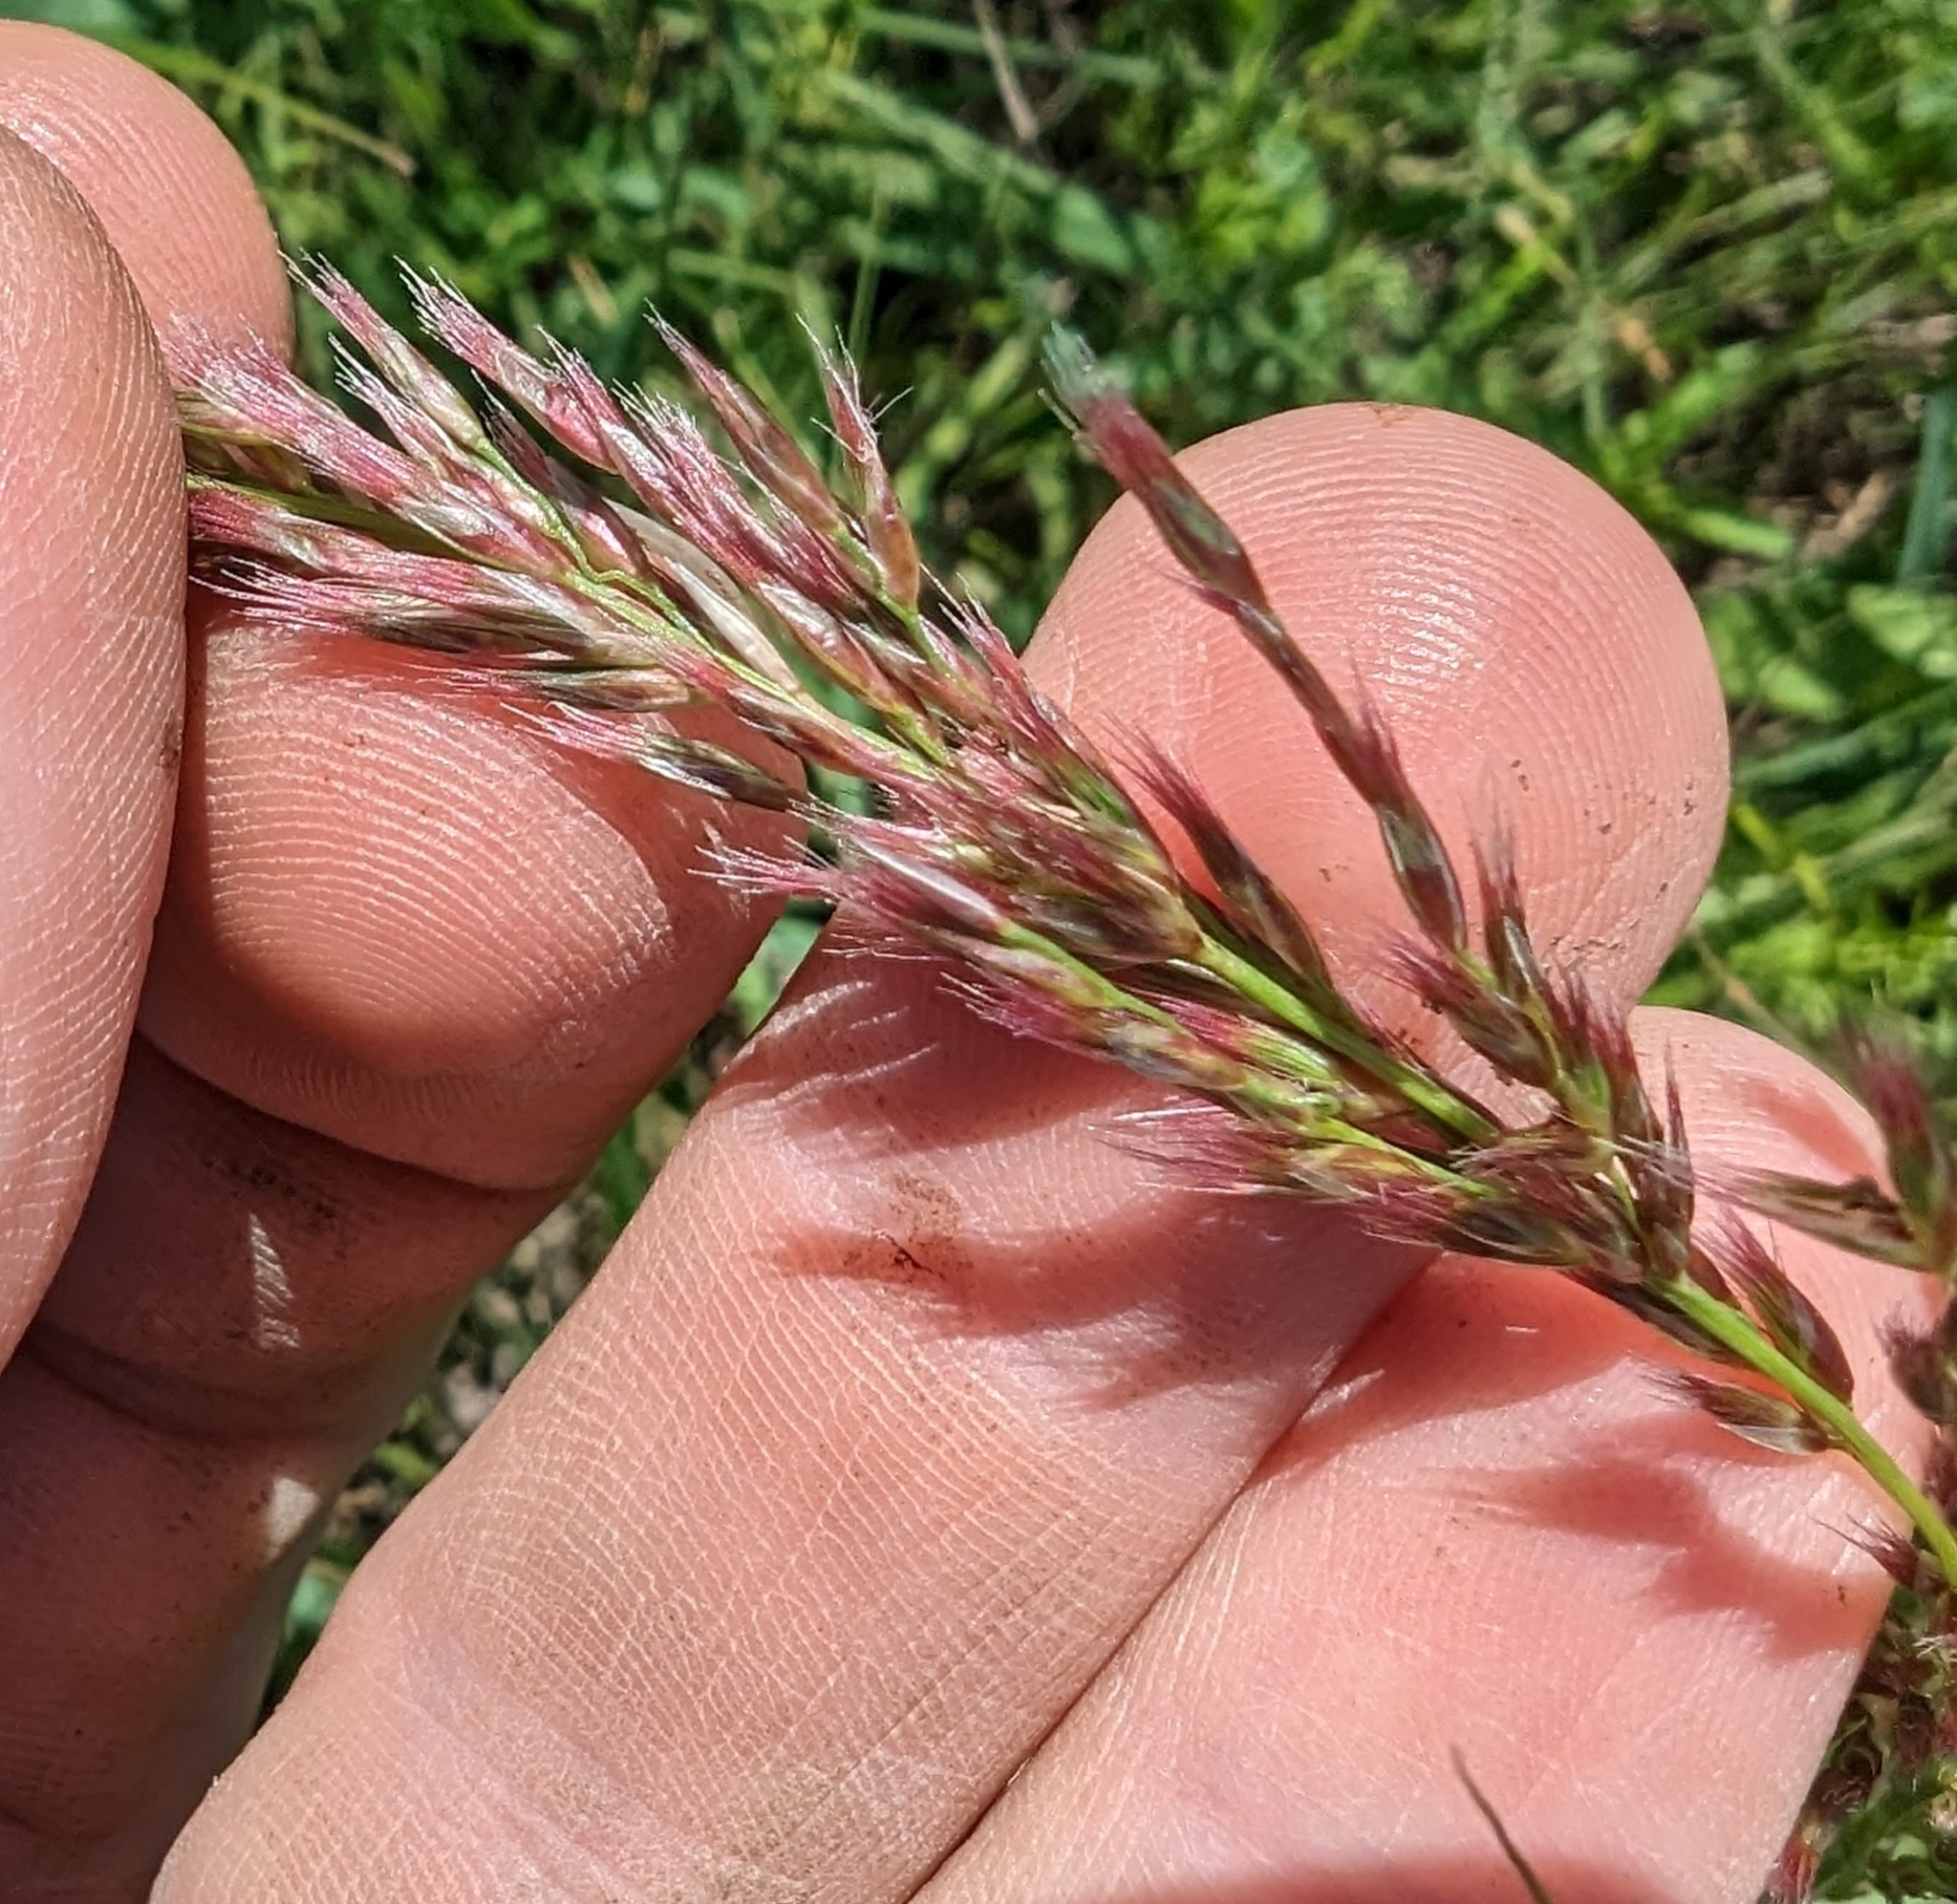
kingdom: Plantae
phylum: Tracheophyta
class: Liliopsida
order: Poales
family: Poaceae
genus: Pappophorum
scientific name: Pappophorum bicolor
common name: Pink pappus grass
